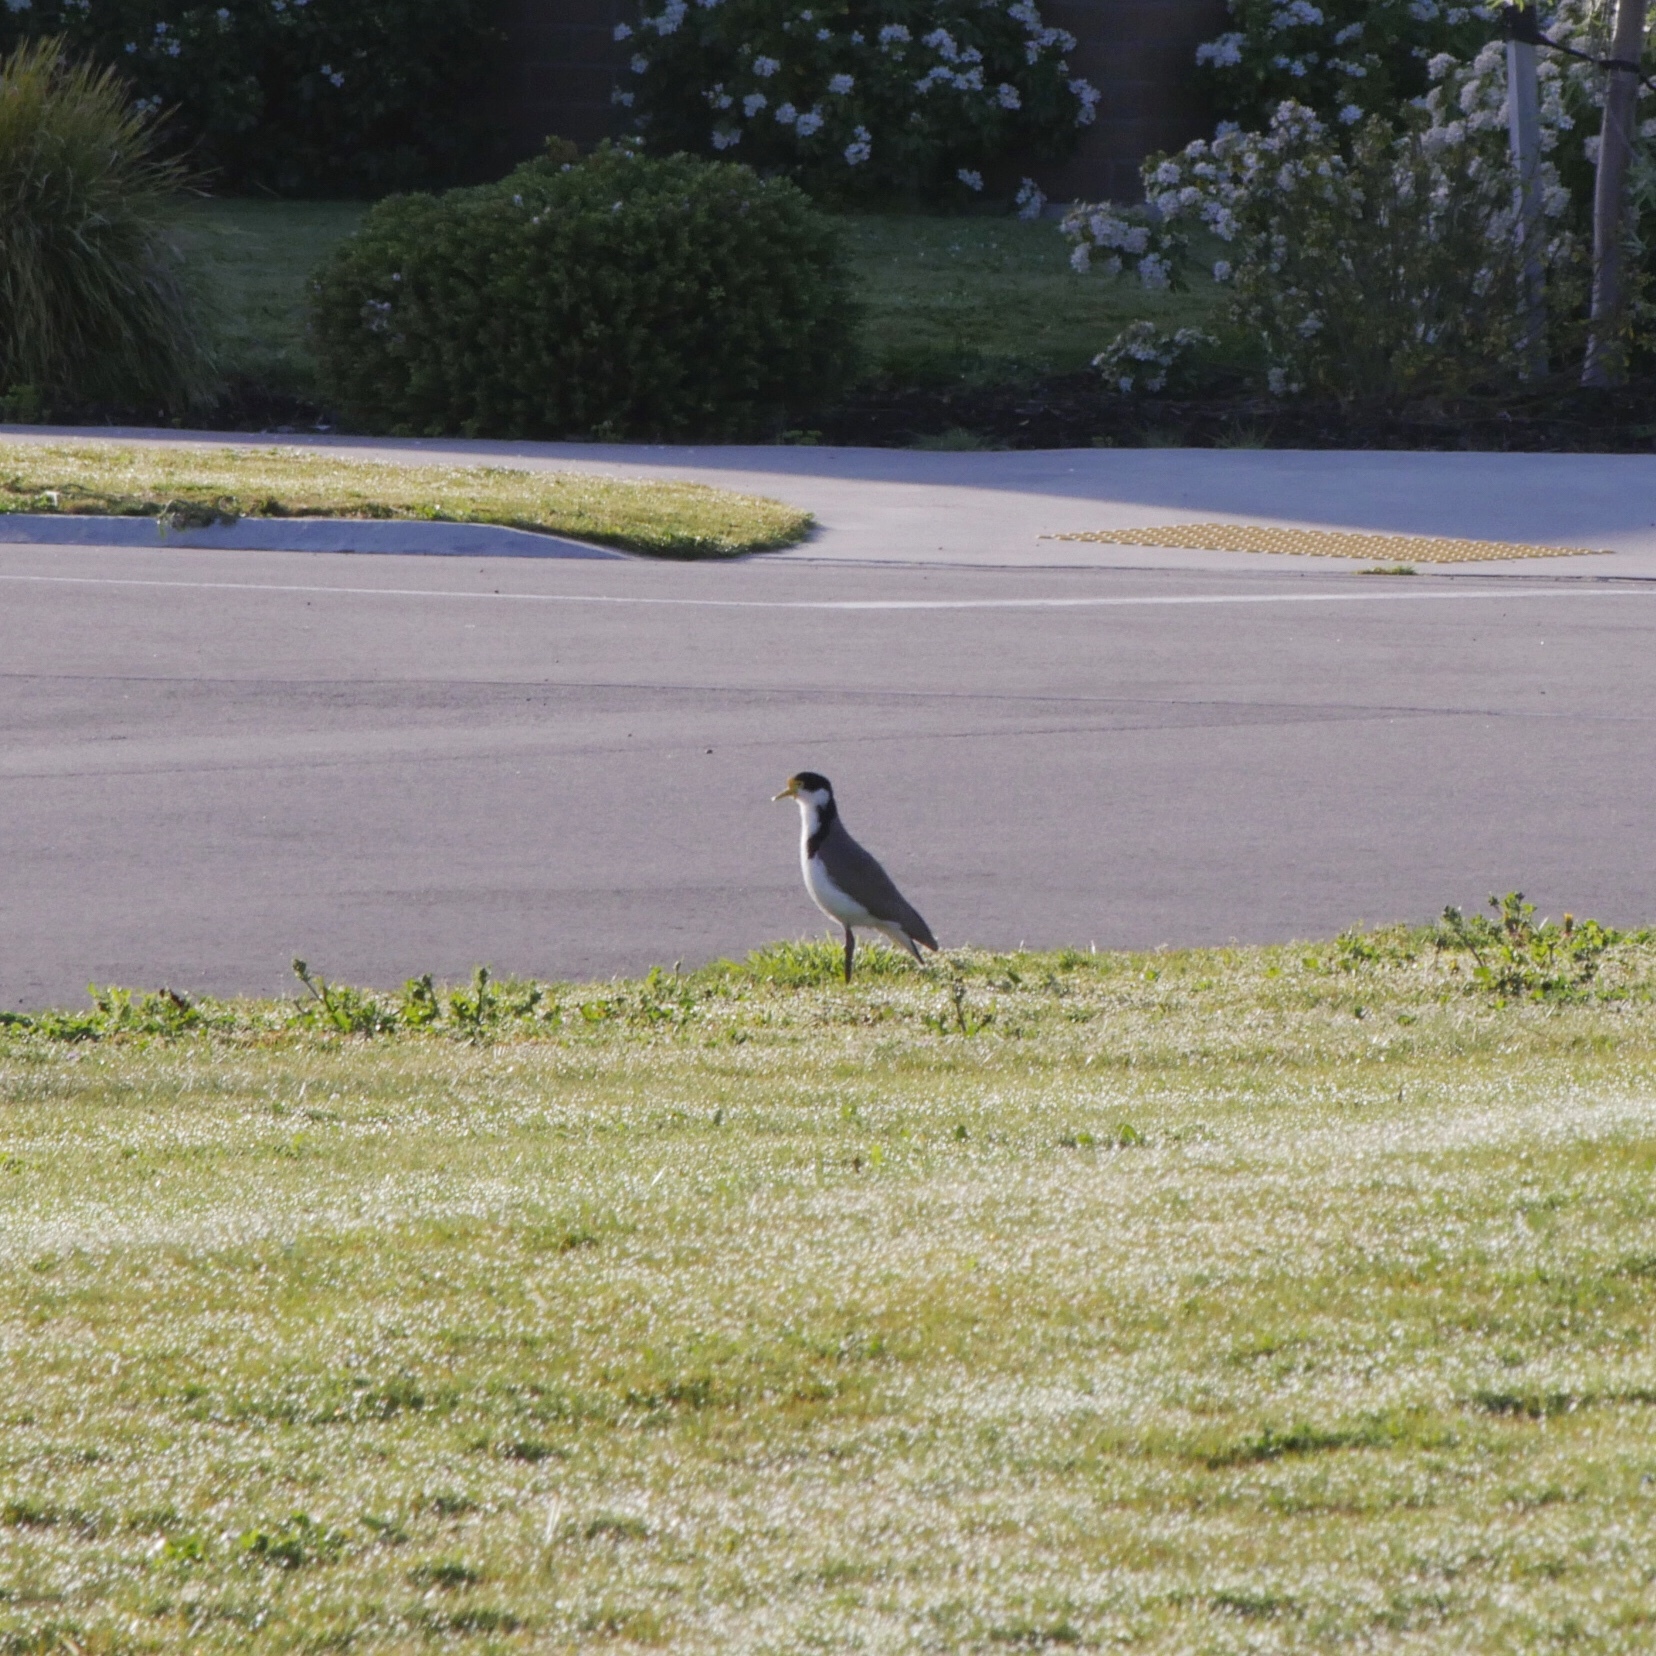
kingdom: Animalia
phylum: Chordata
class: Aves
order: Charadriiformes
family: Charadriidae
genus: Vanellus
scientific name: Vanellus miles
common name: Masked lapwing
